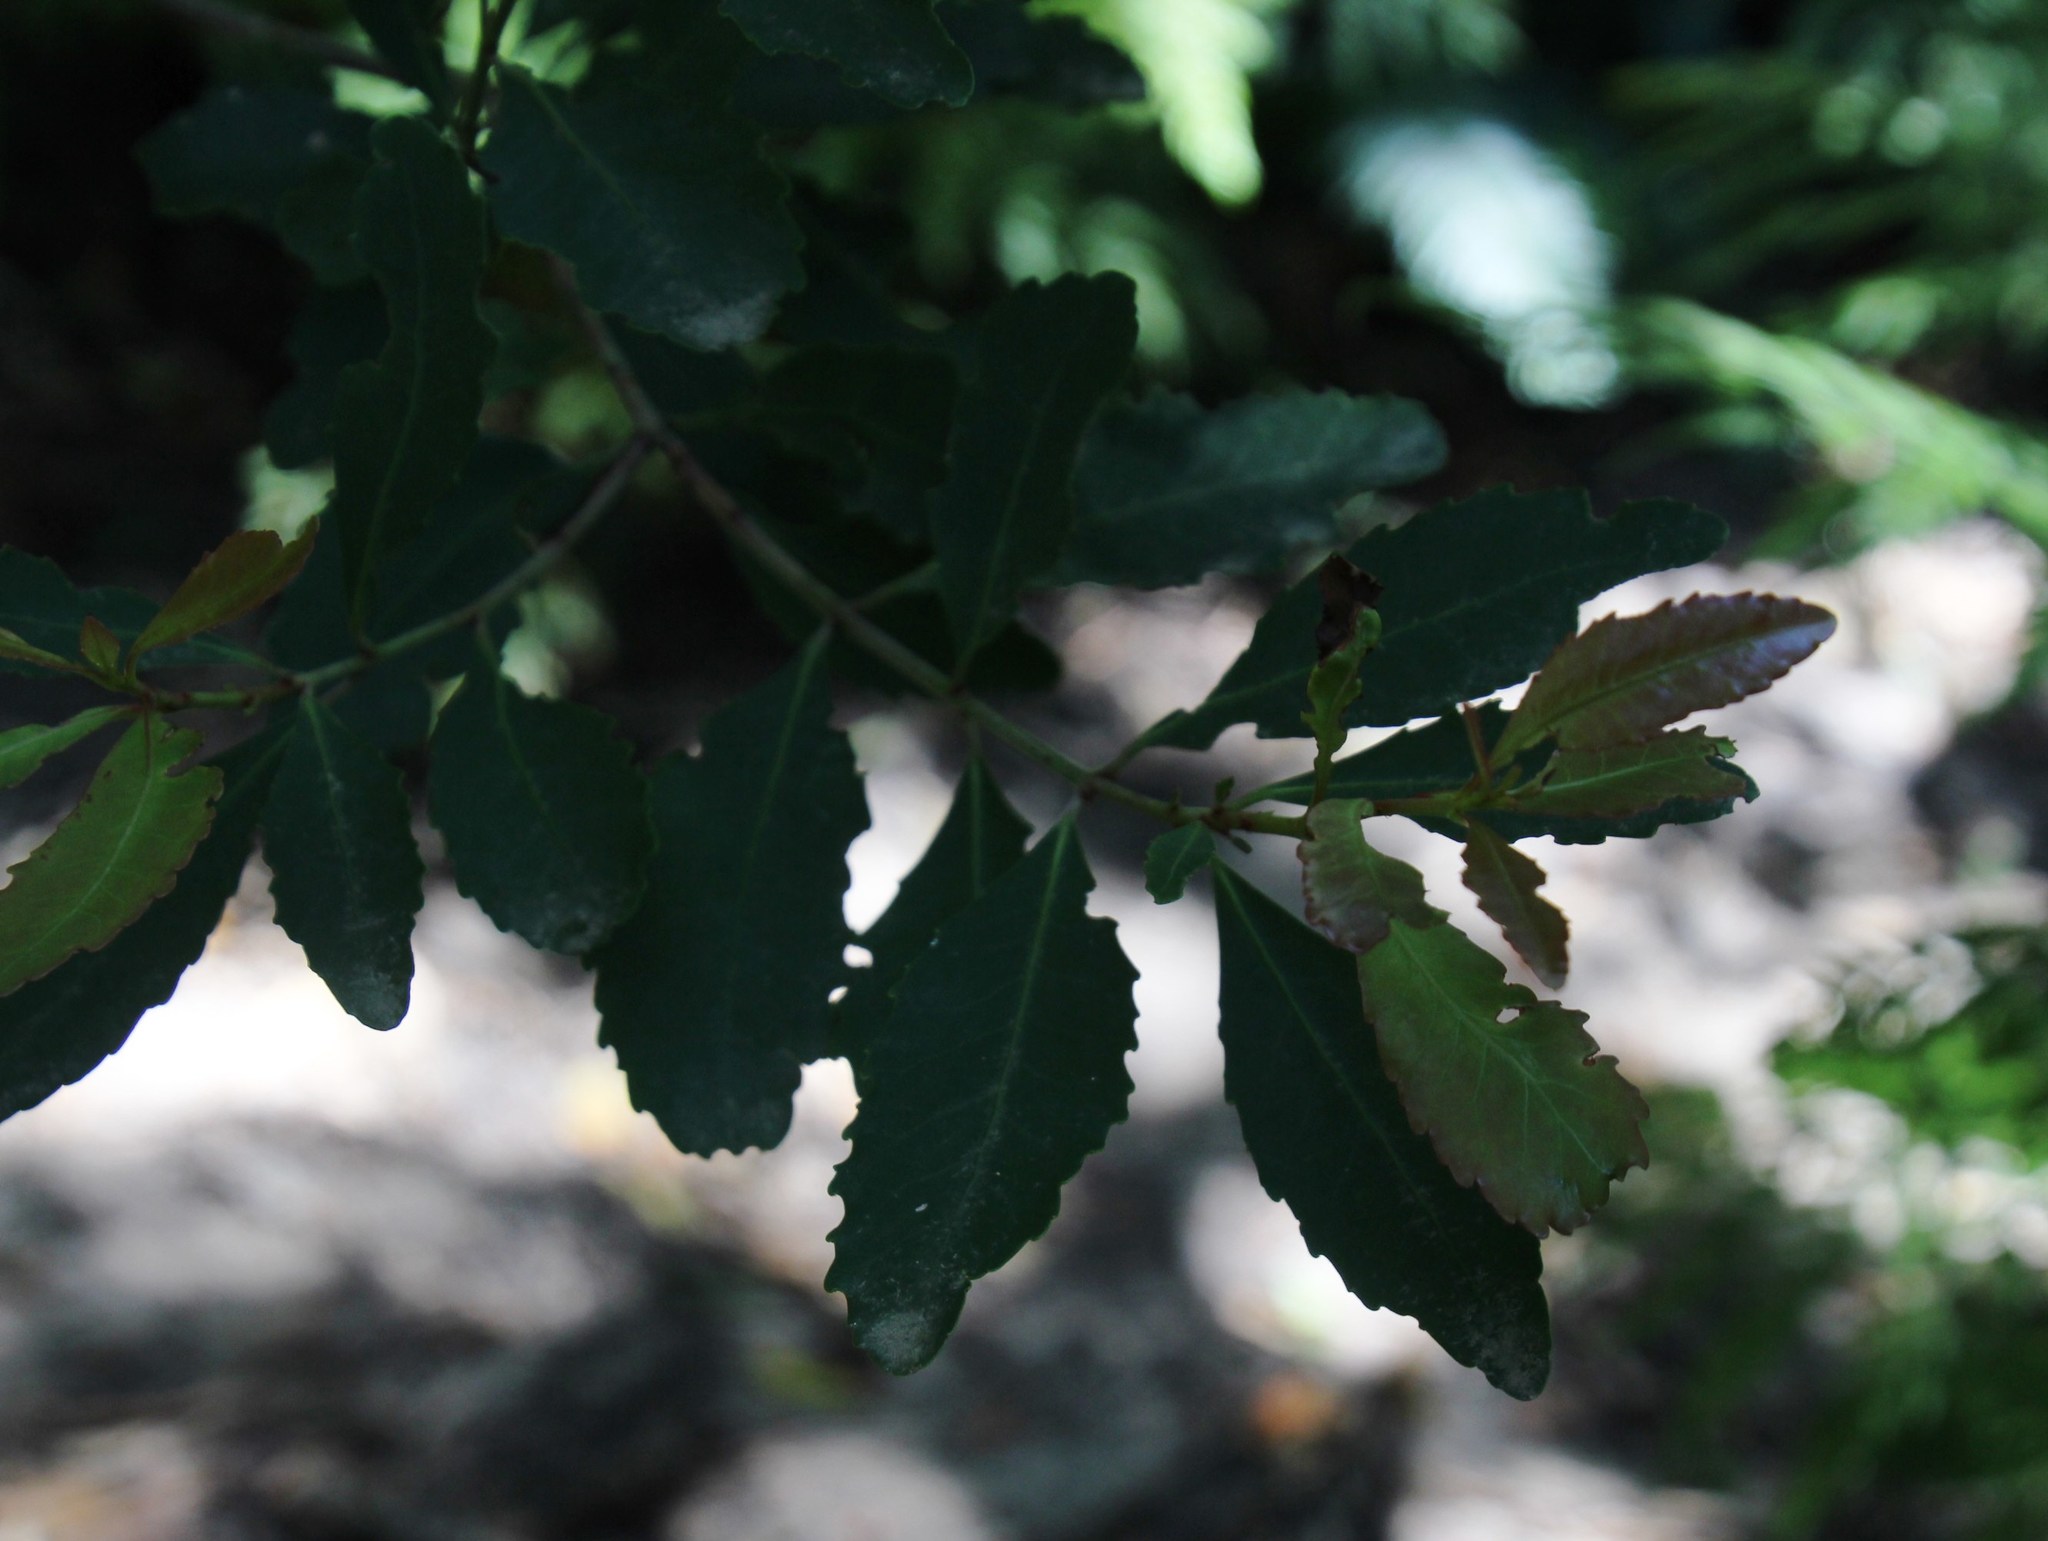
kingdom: Plantae
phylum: Tracheophyta
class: Magnoliopsida
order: Celastrales
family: Celastraceae
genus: Elaeodendron
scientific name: Elaeodendron schinoides
